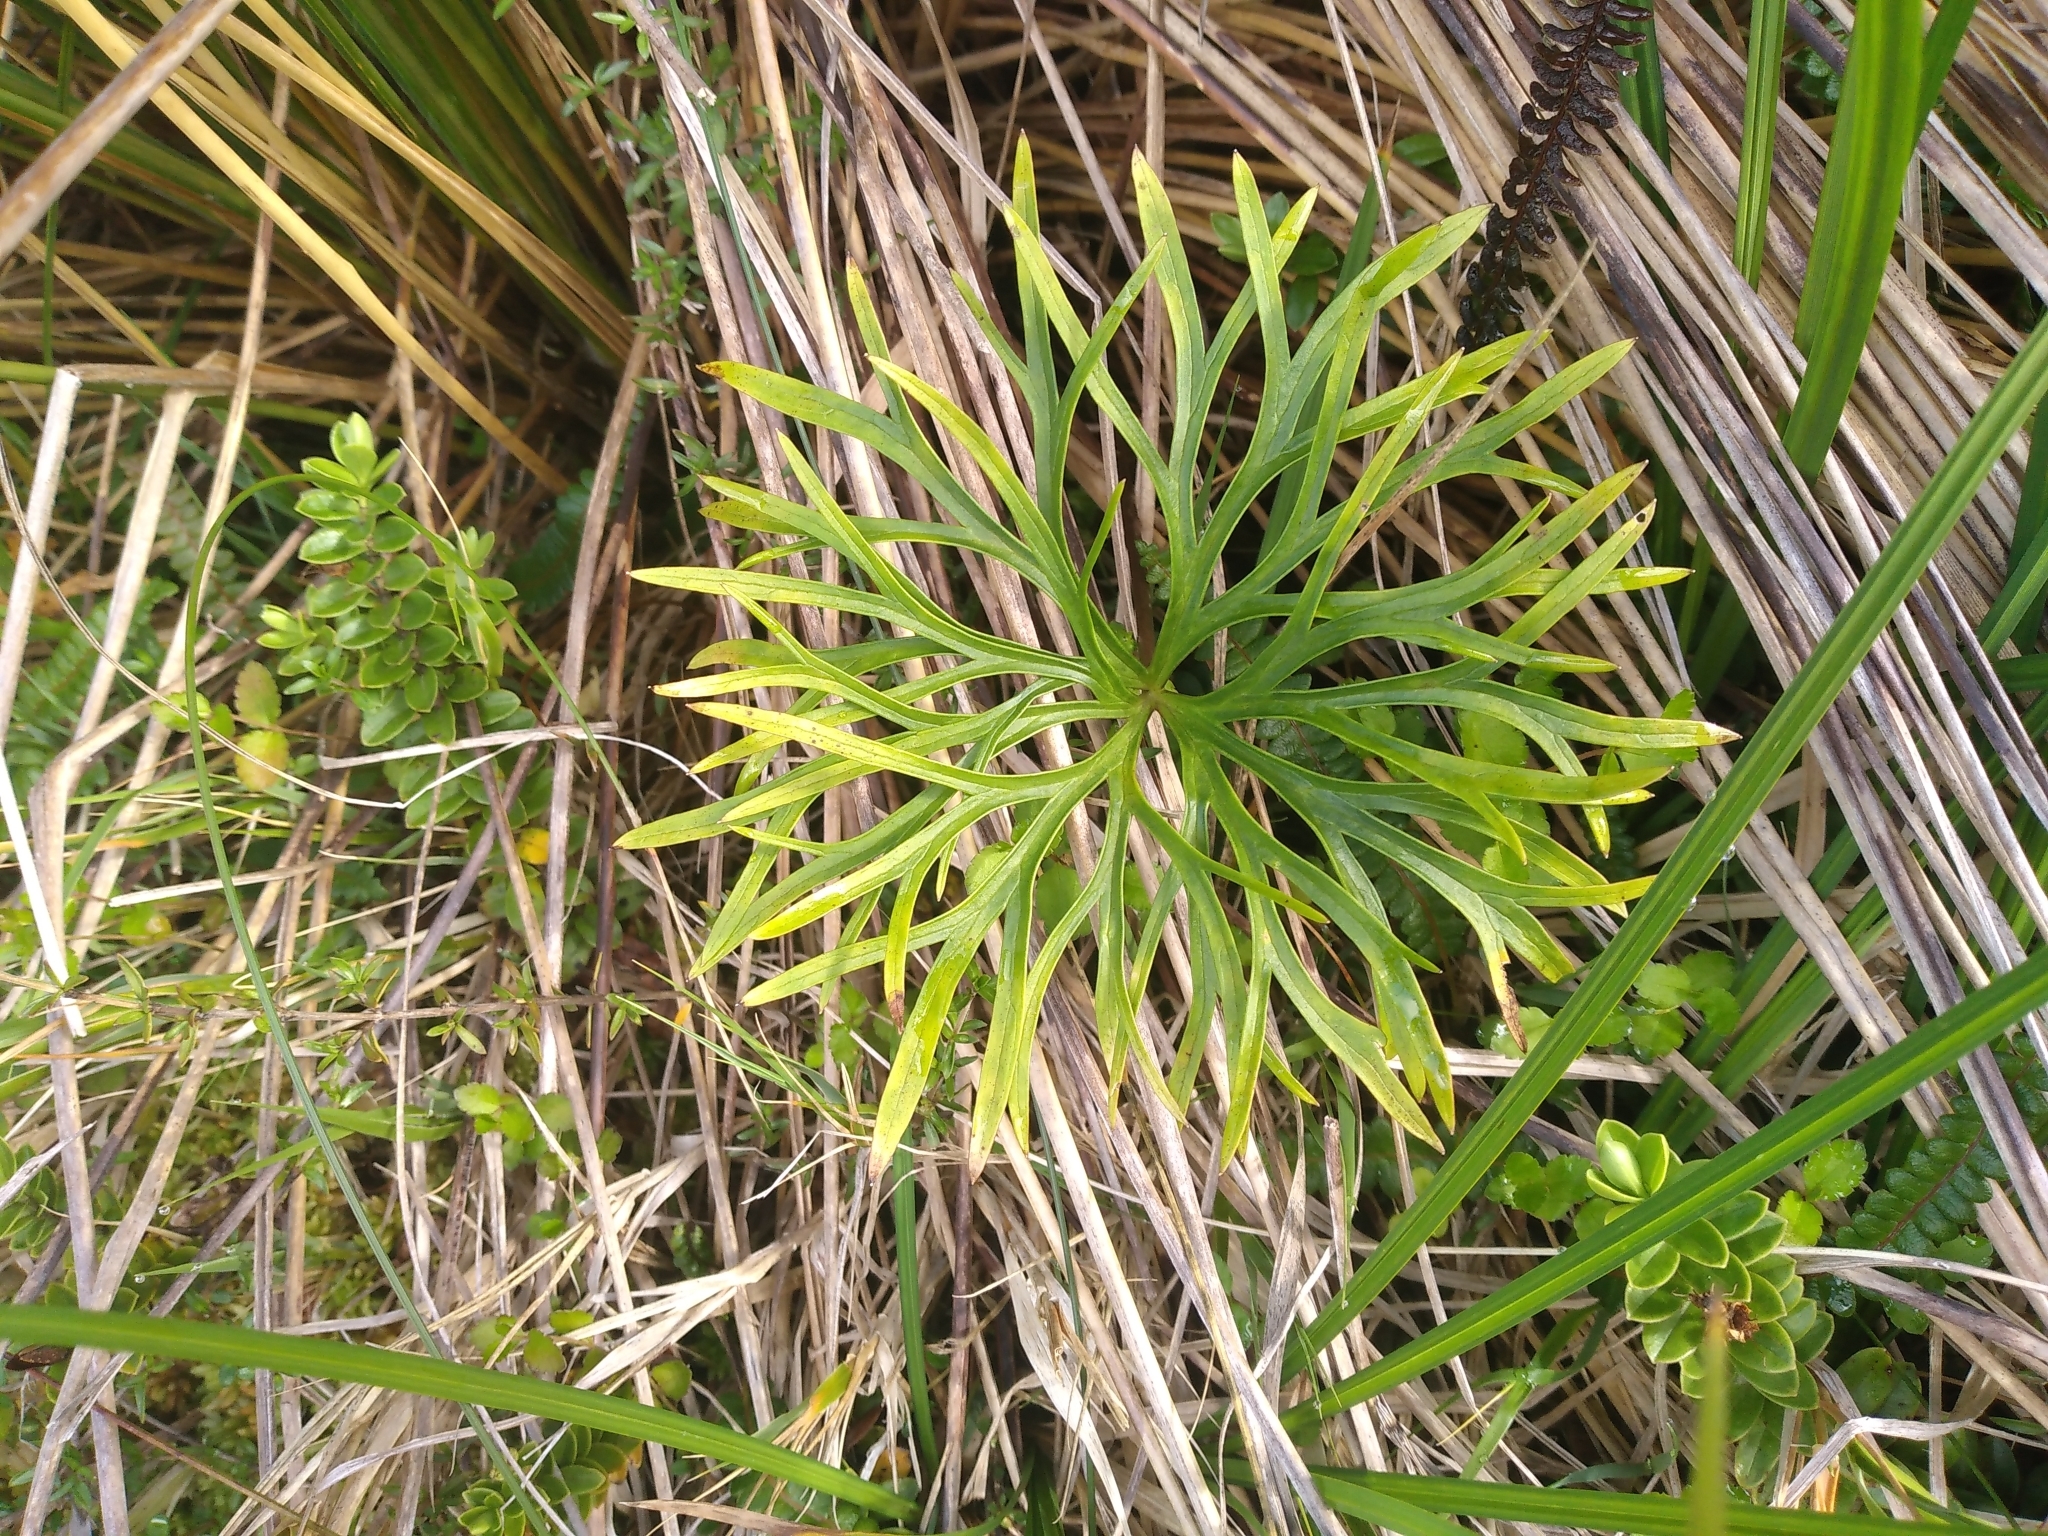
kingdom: Plantae
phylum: Tracheophyta
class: Magnoliopsida
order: Ranunculales
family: Ranunculaceae
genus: Ranunculus
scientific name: Ranunculus verticillatus
